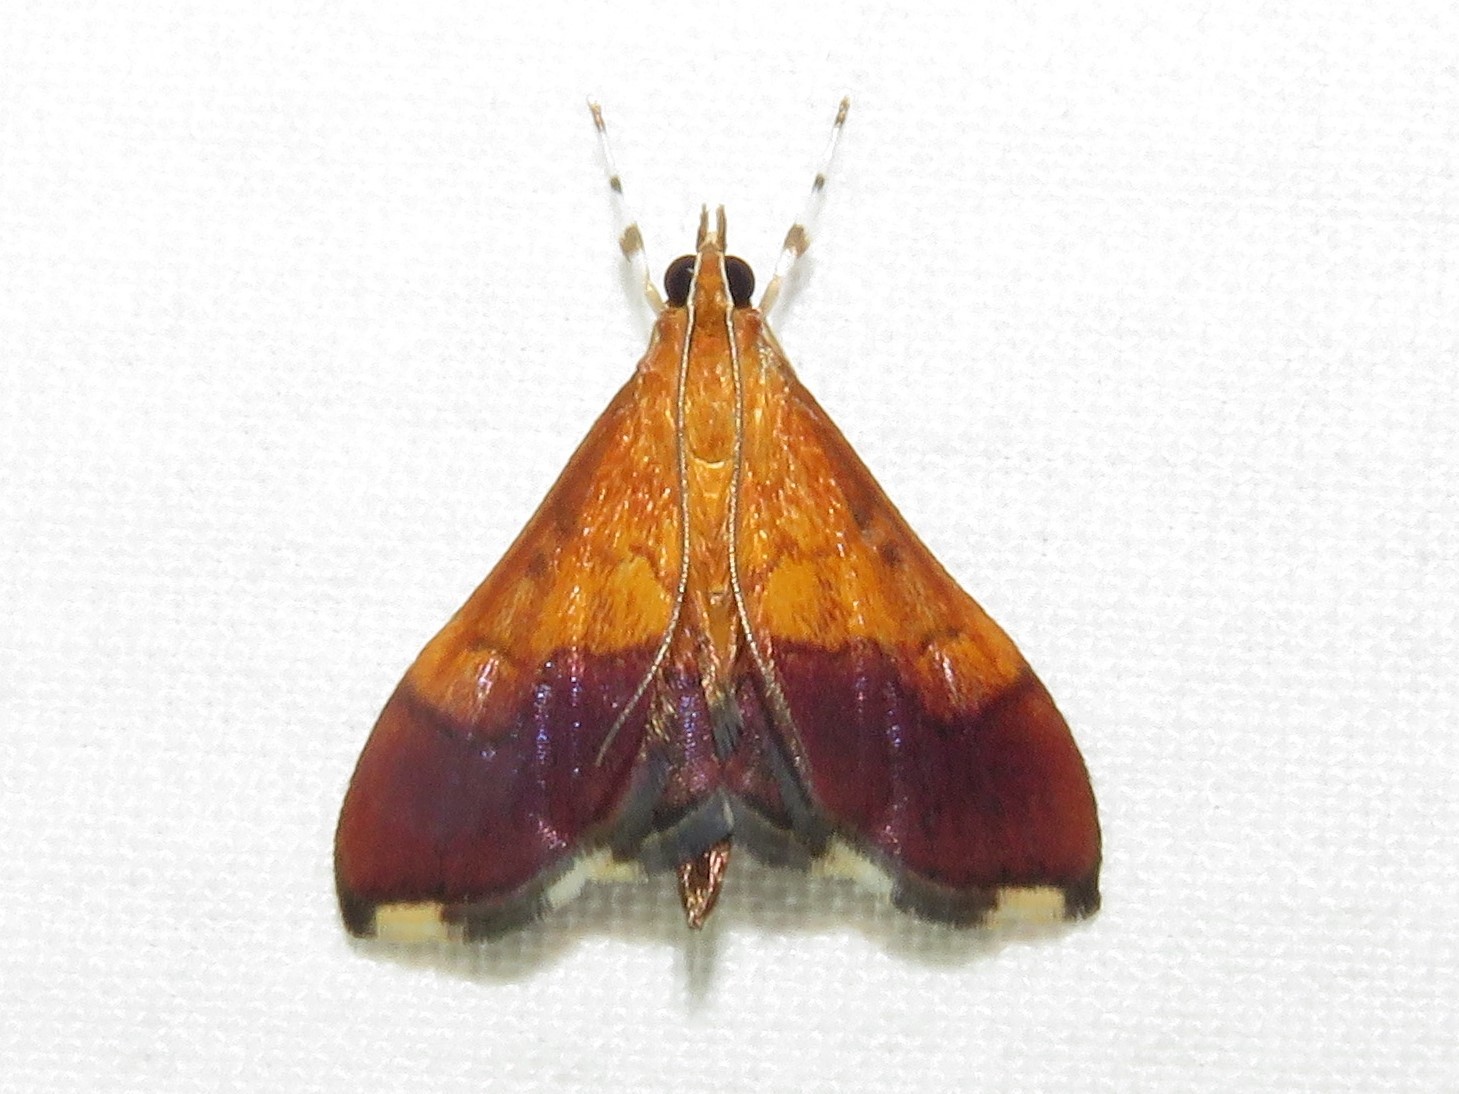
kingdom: Animalia
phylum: Arthropoda
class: Insecta
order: Lepidoptera
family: Crambidae
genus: Pyrausta
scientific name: Pyrausta bicoloralis
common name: Bicolored pyrausta moth
